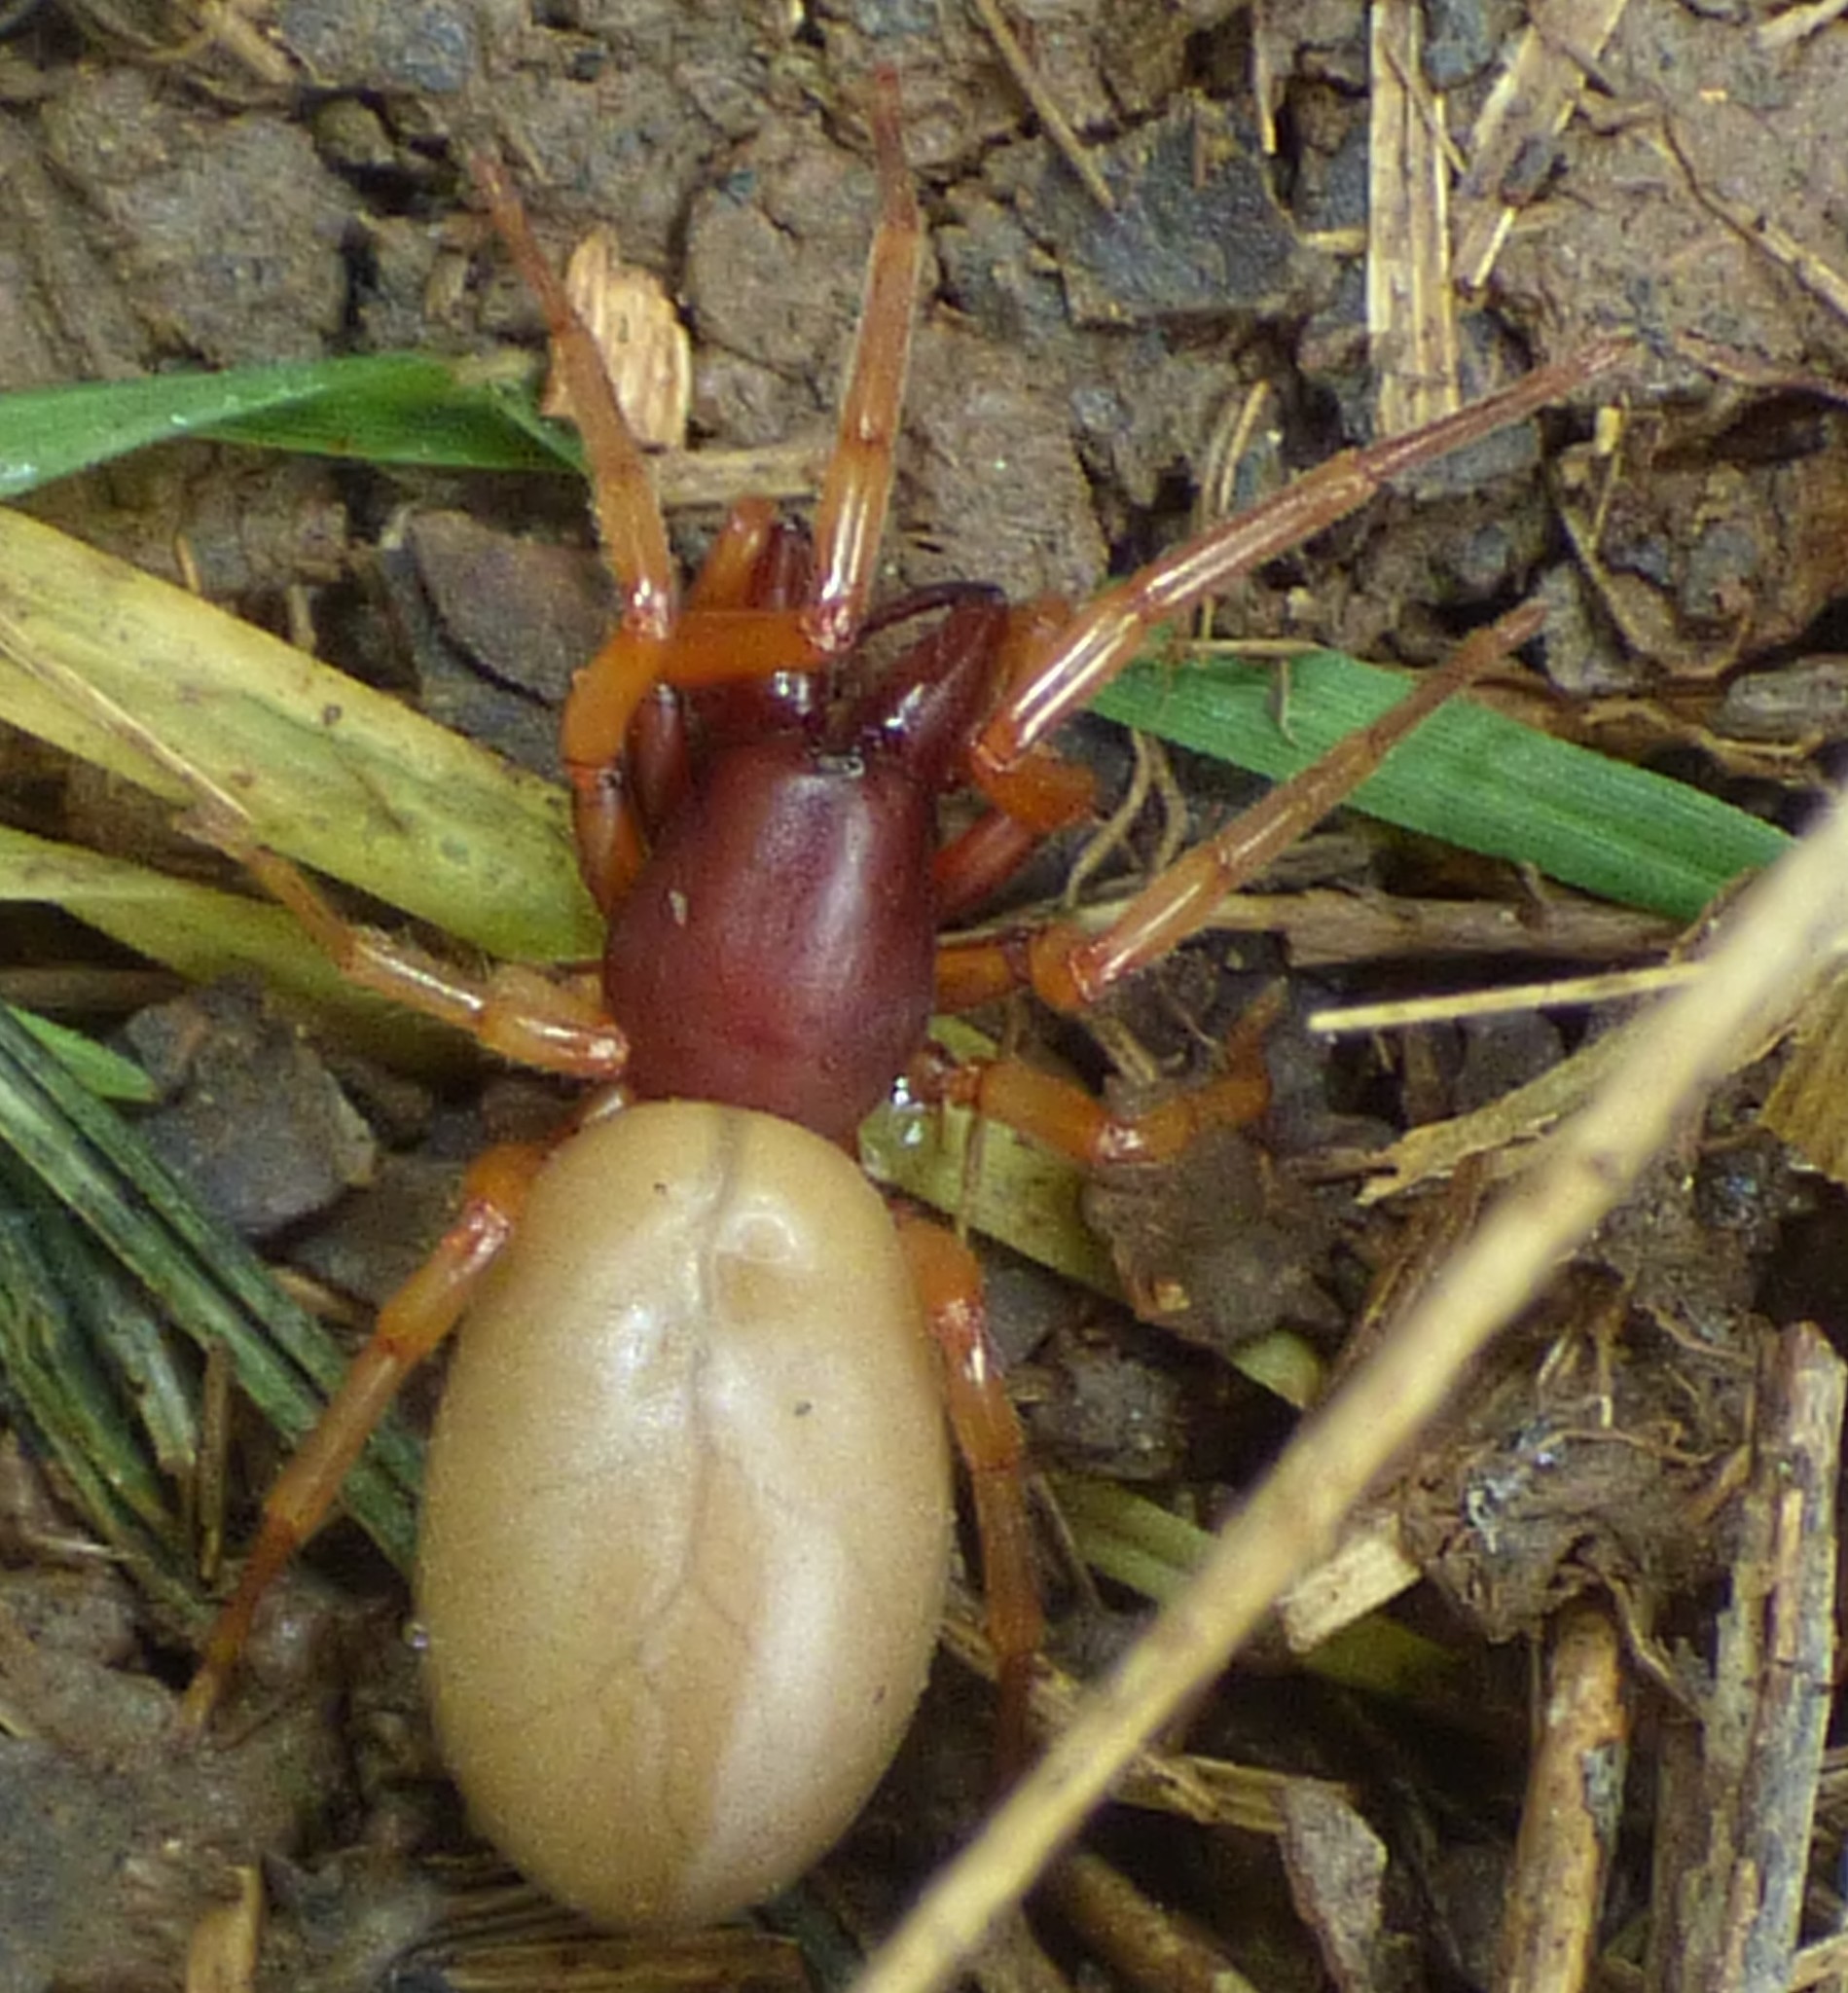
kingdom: Animalia
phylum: Arthropoda
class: Arachnida
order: Araneae
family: Dysderidae
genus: Dysdera
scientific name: Dysdera crocata
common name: Woodlouse spider
